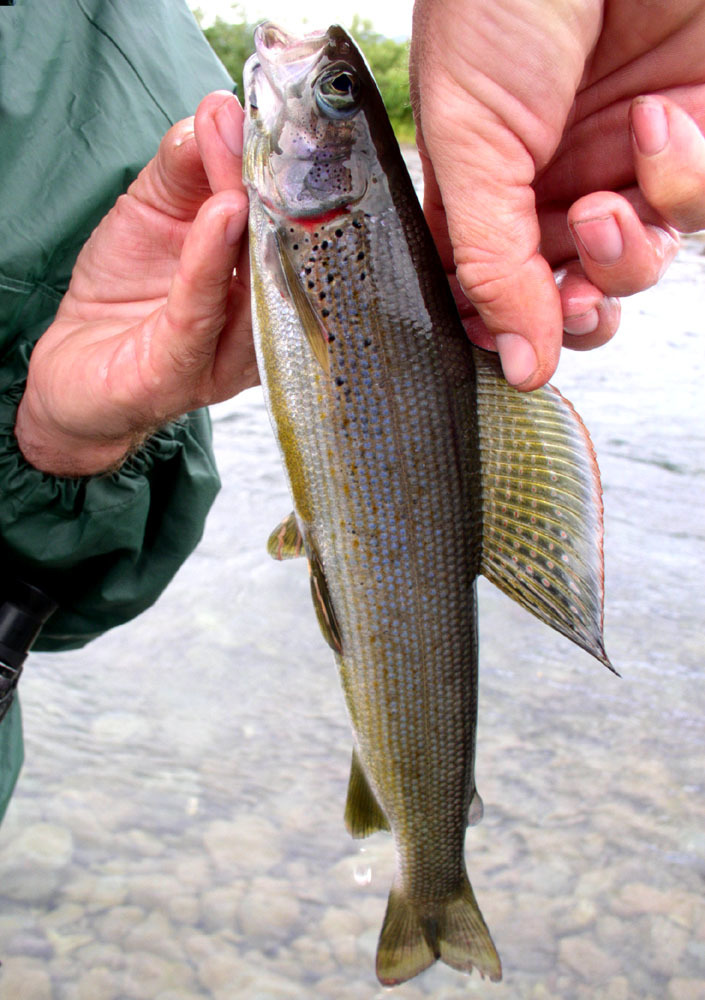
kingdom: Animalia
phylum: Chordata
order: Salmoniformes
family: Salmonidae
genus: Thymallus
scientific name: Thymallus arcticus
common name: Arctic grayling
